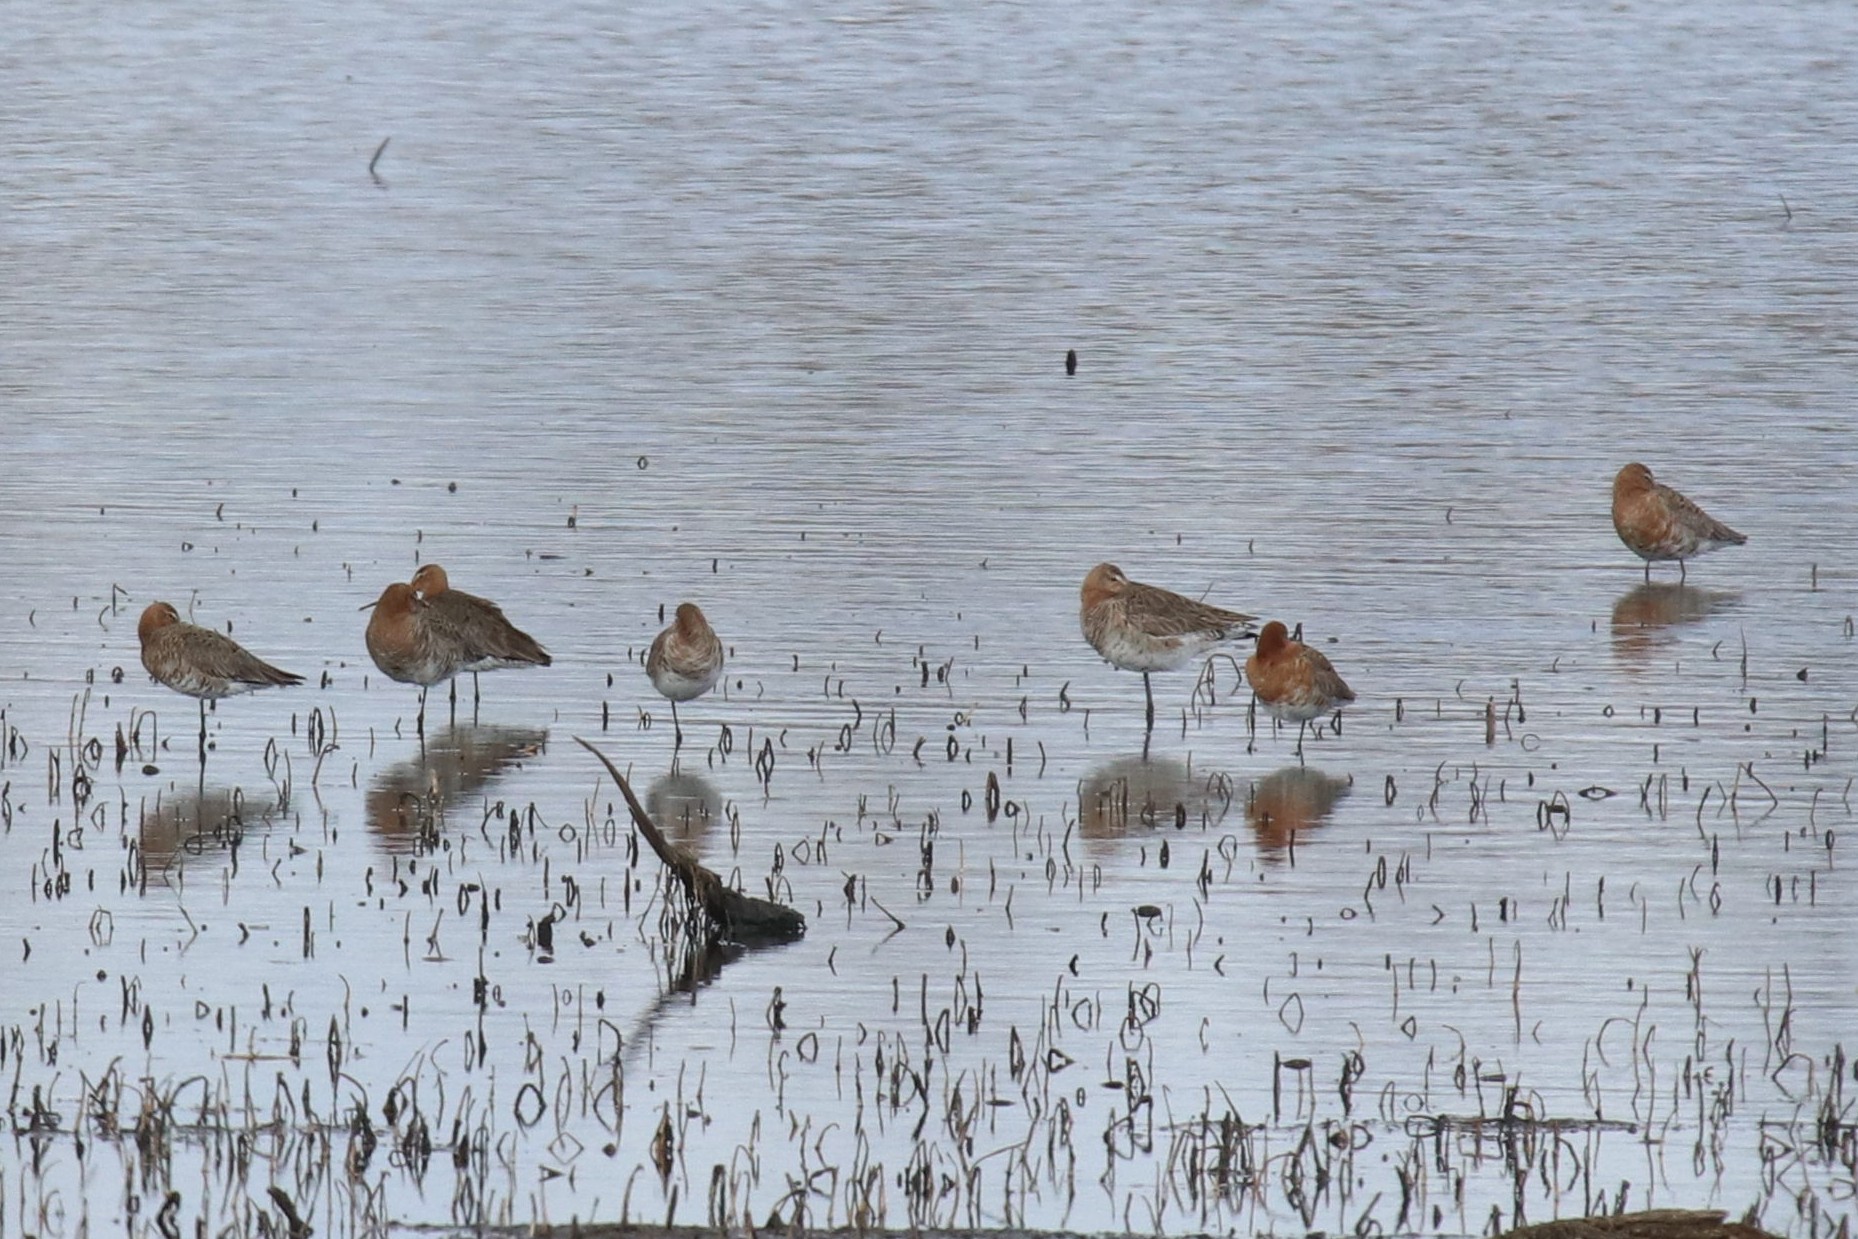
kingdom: Animalia
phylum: Chordata
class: Aves
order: Charadriiformes
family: Scolopacidae
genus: Limosa
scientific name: Limosa limosa
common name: Black-tailed godwit
